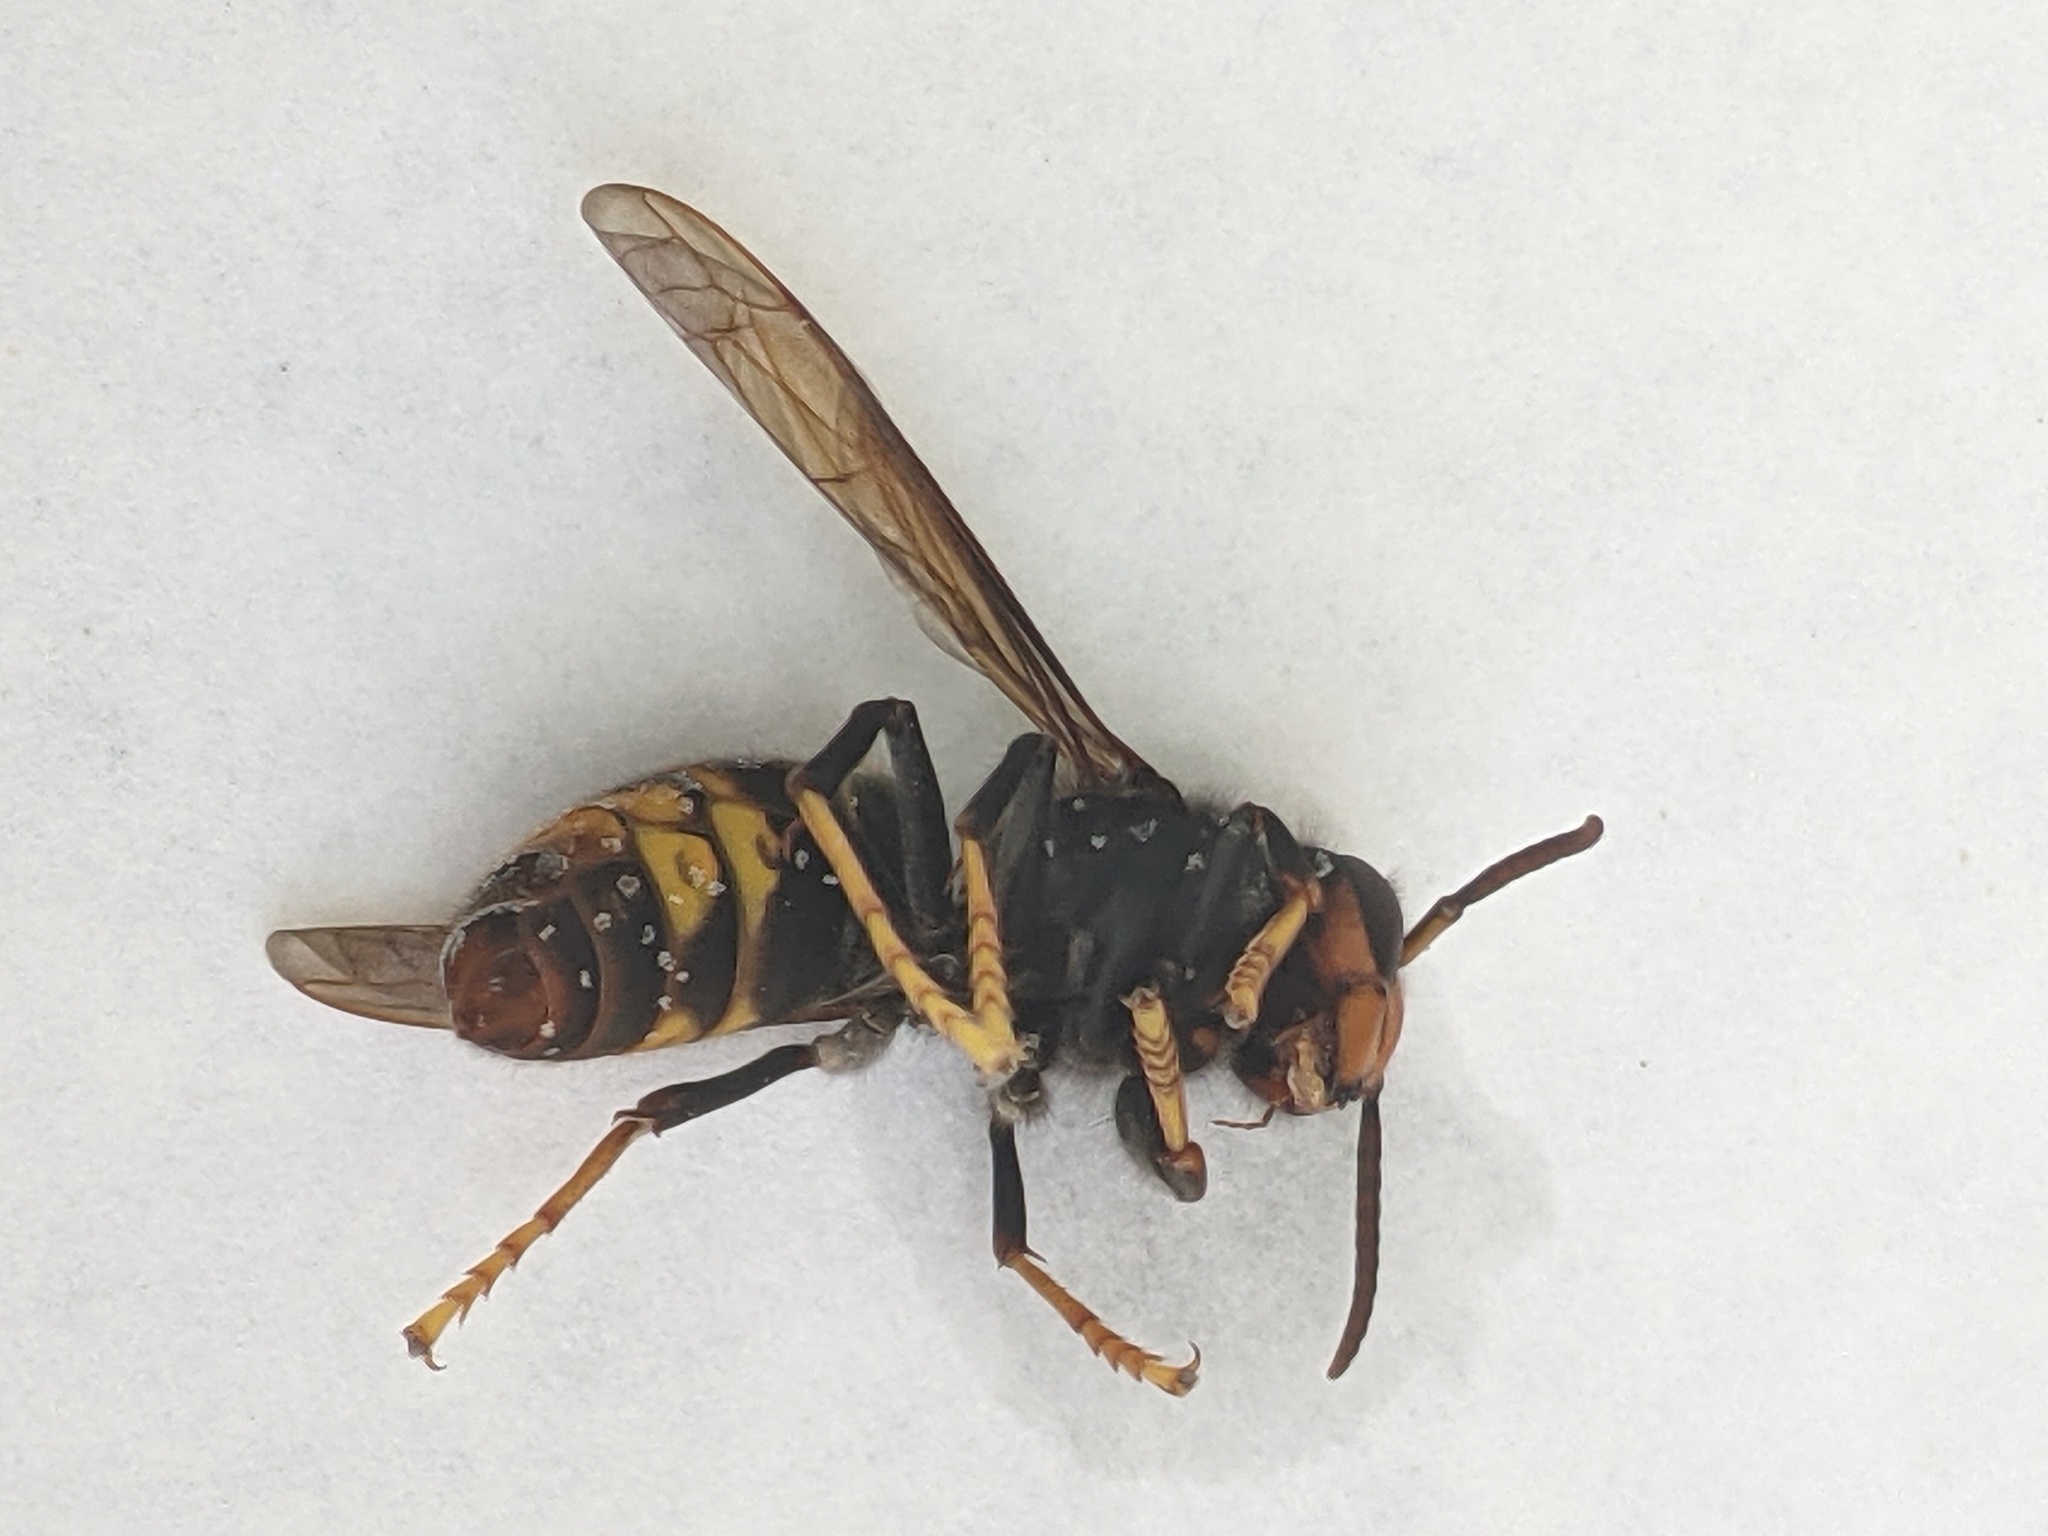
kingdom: Animalia
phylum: Arthropoda
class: Insecta
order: Hymenoptera
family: Vespidae
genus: Vespa
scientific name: Vespa velutina
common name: Asian hornet
